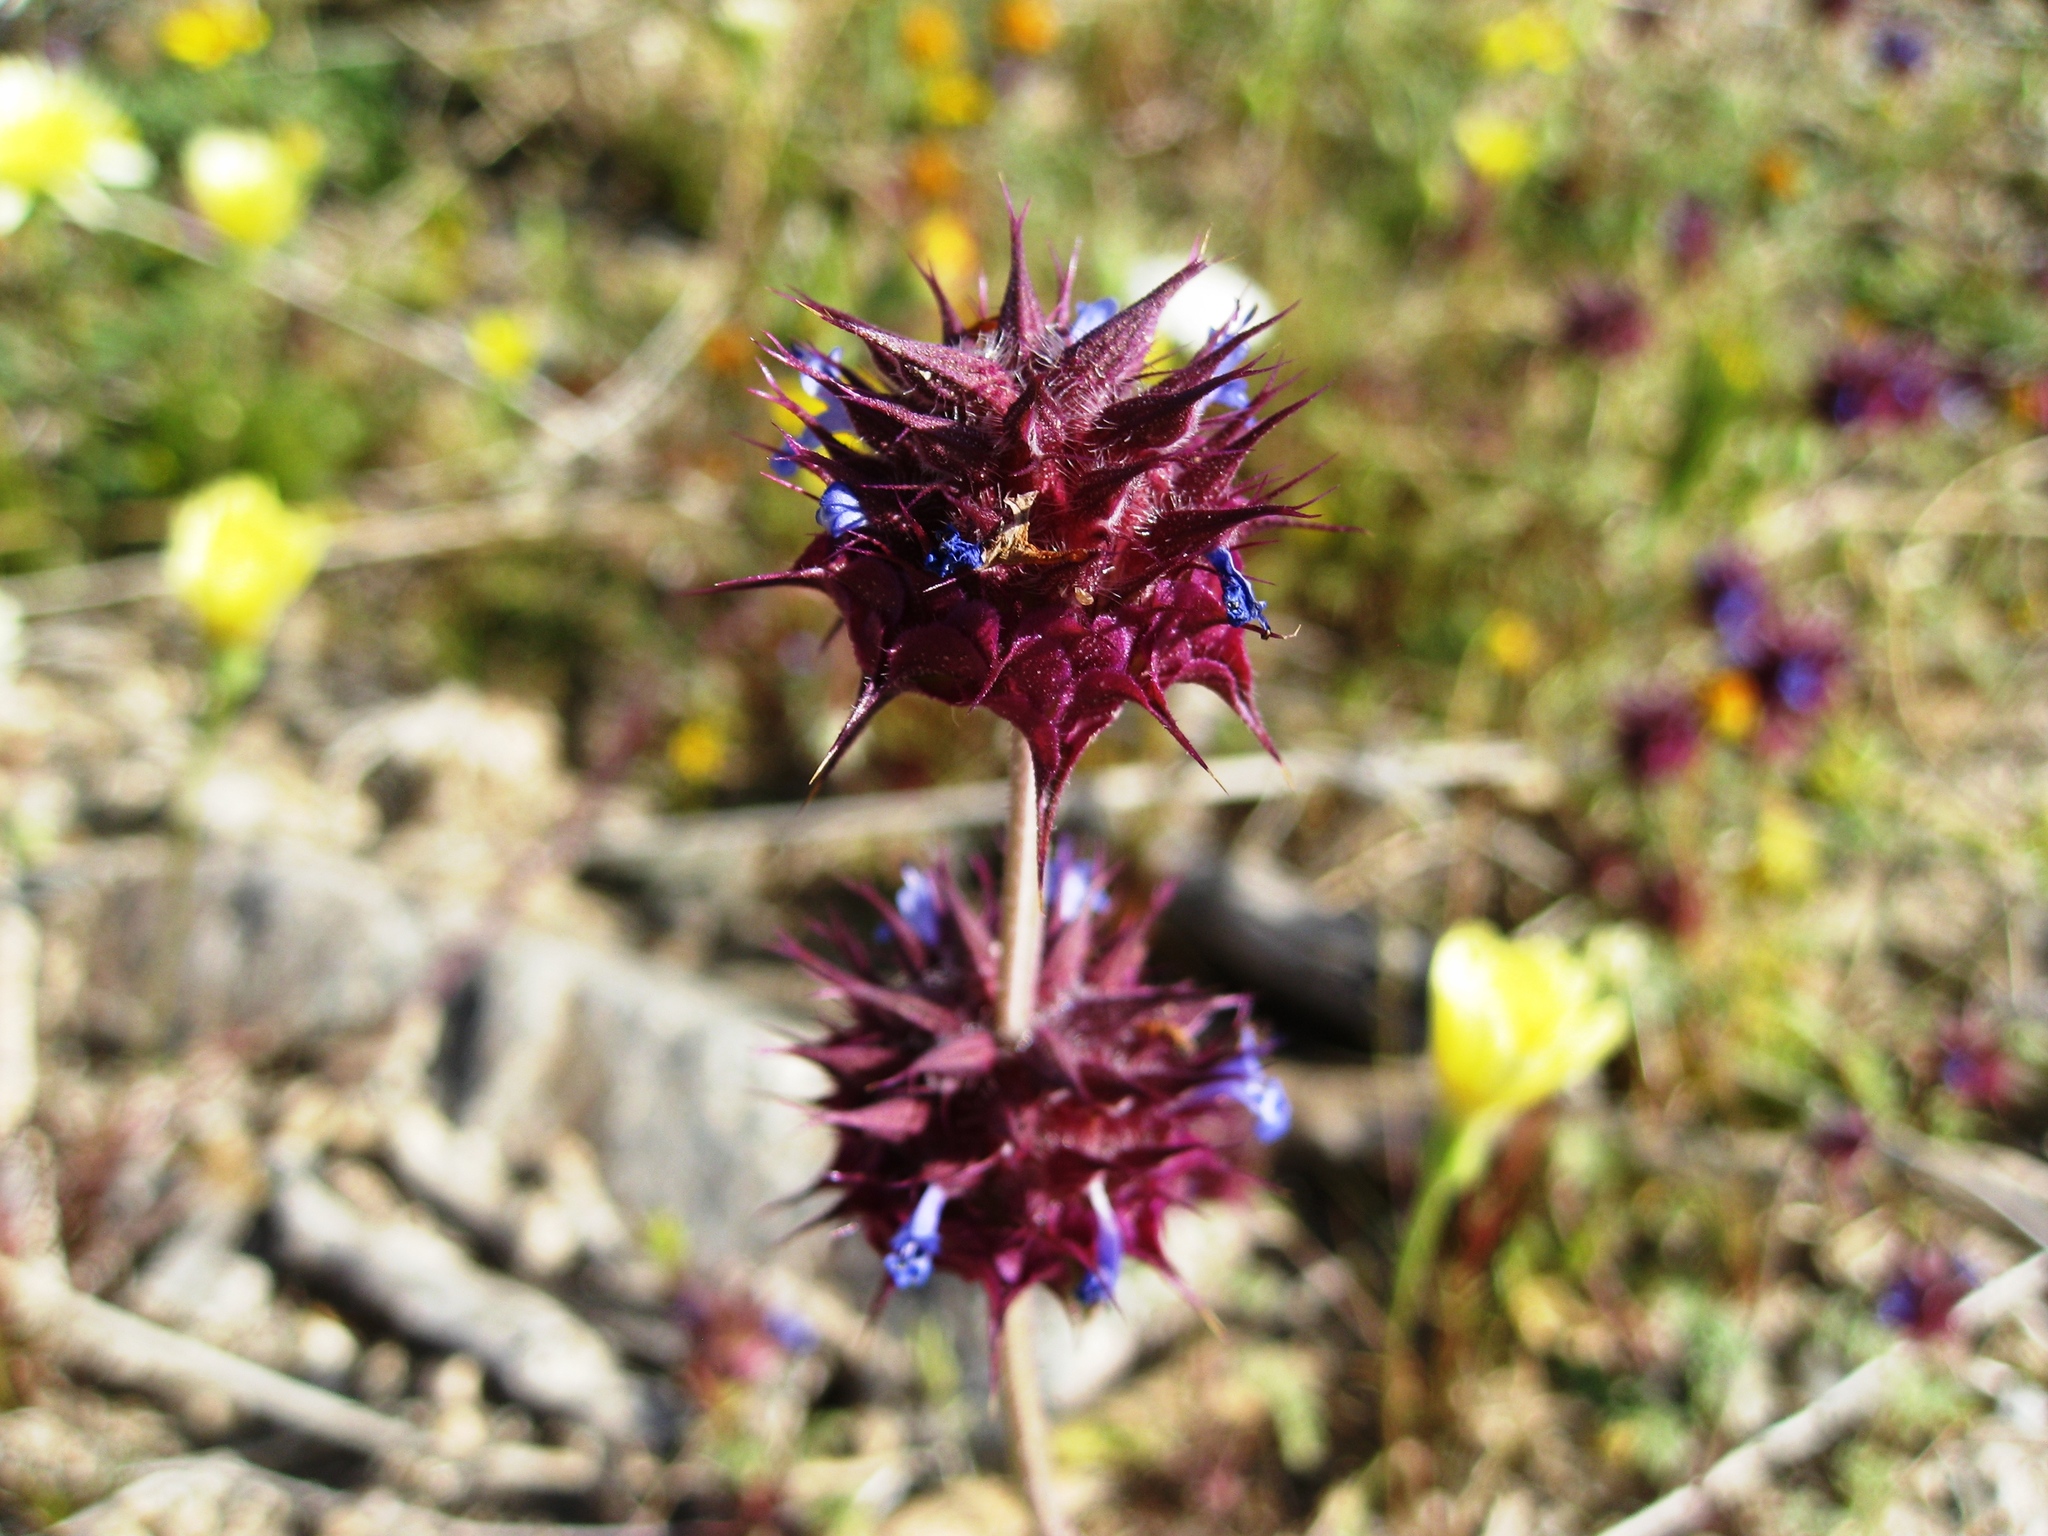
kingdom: Plantae
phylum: Tracheophyta
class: Magnoliopsida
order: Lamiales
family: Lamiaceae
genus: Salvia
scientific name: Salvia columbariae
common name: Chia
